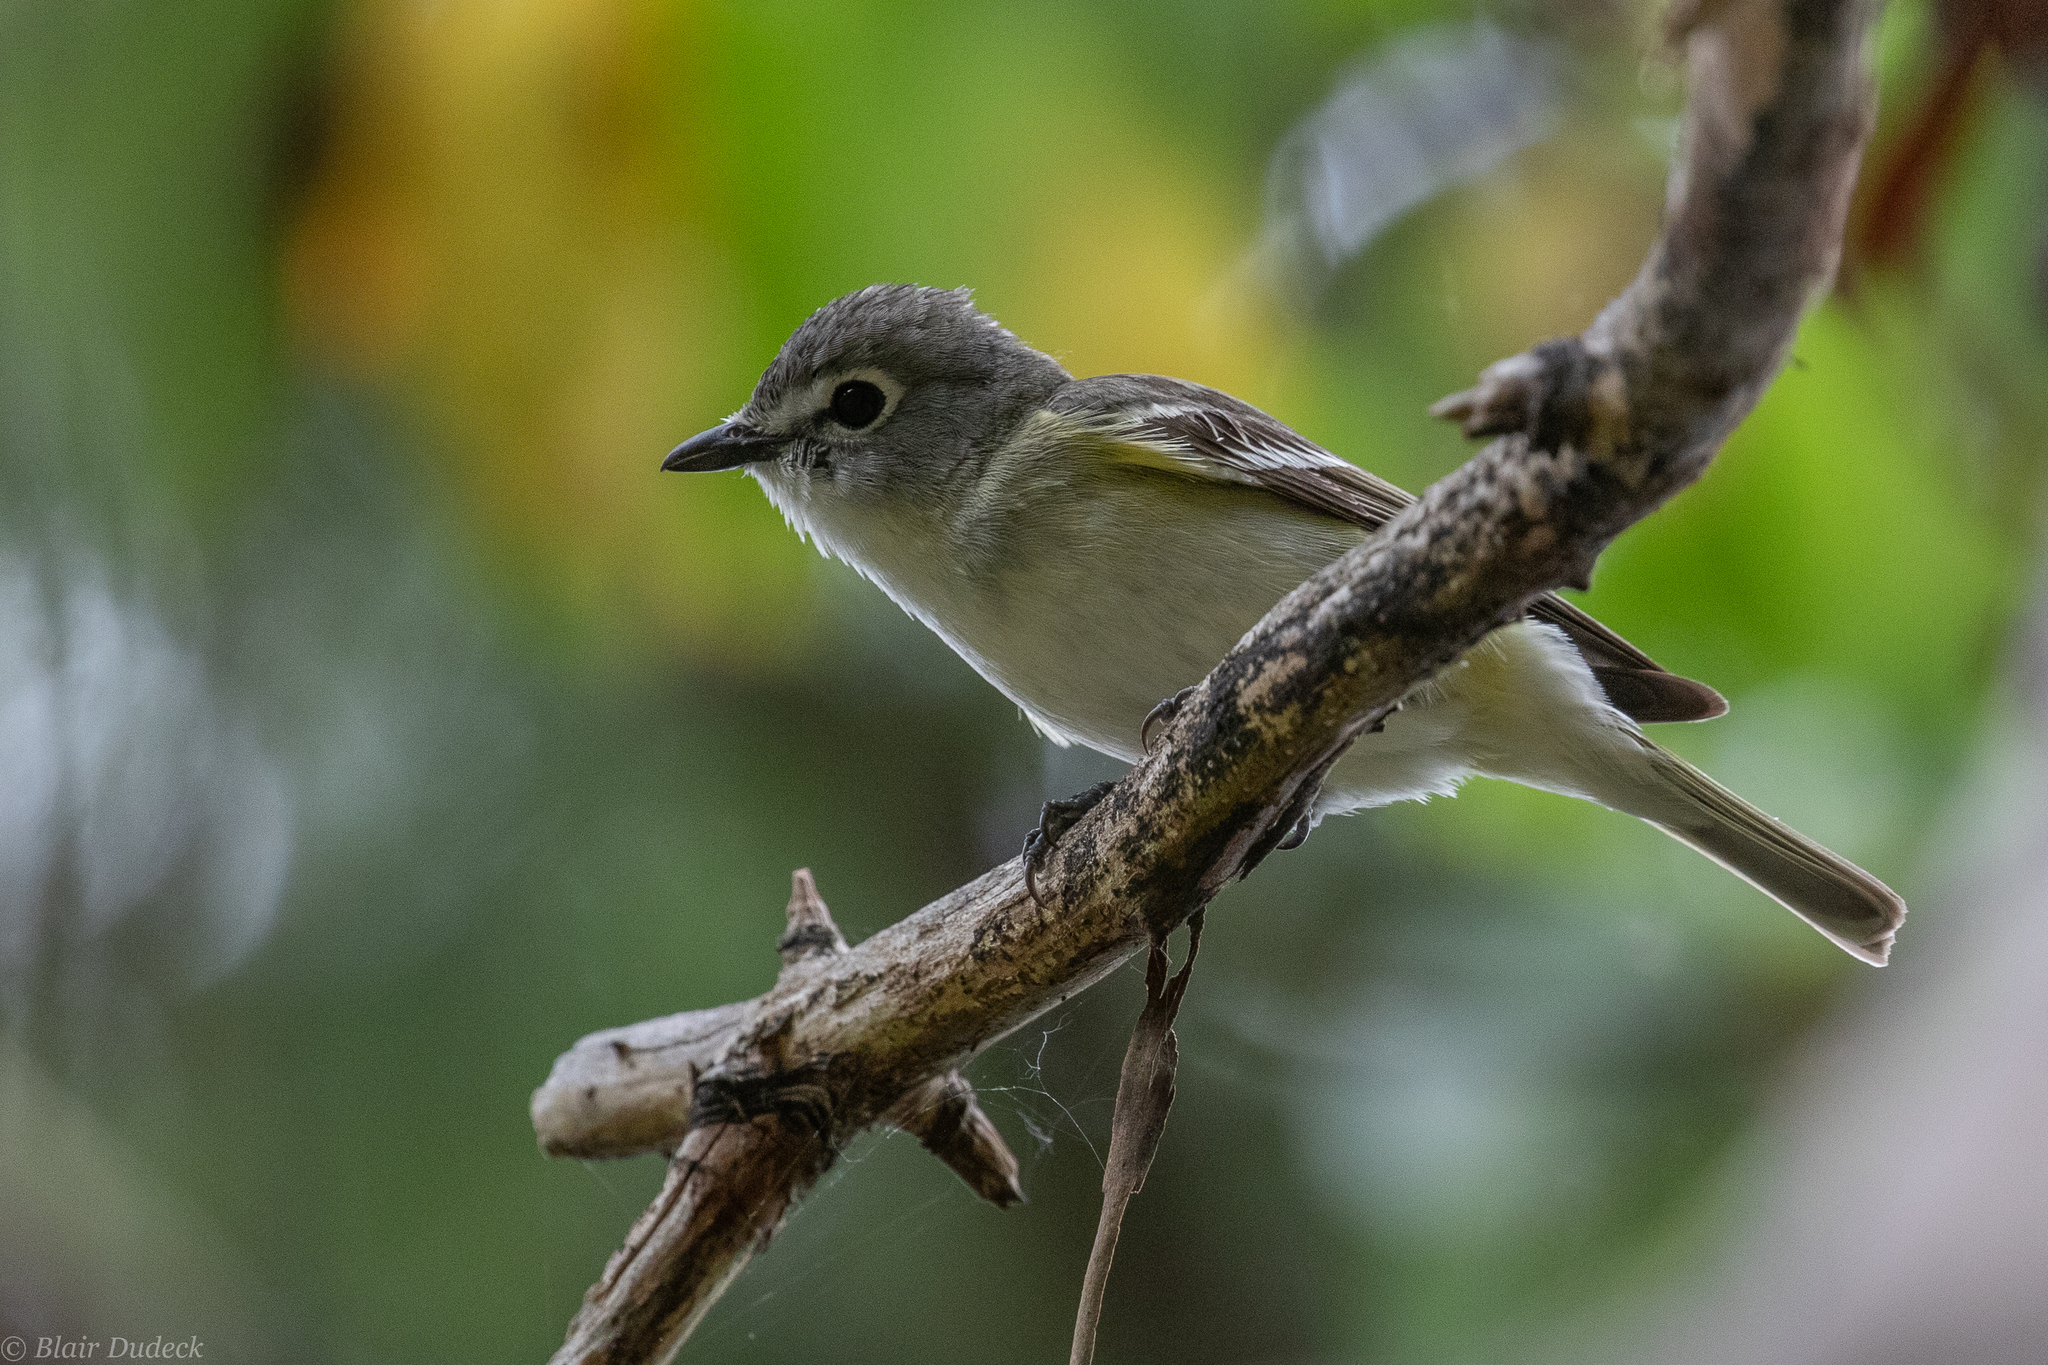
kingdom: Animalia
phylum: Chordata
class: Aves
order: Passeriformes
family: Vireonidae
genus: Vireo
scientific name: Vireo cassinii
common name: Cassin's vireo
